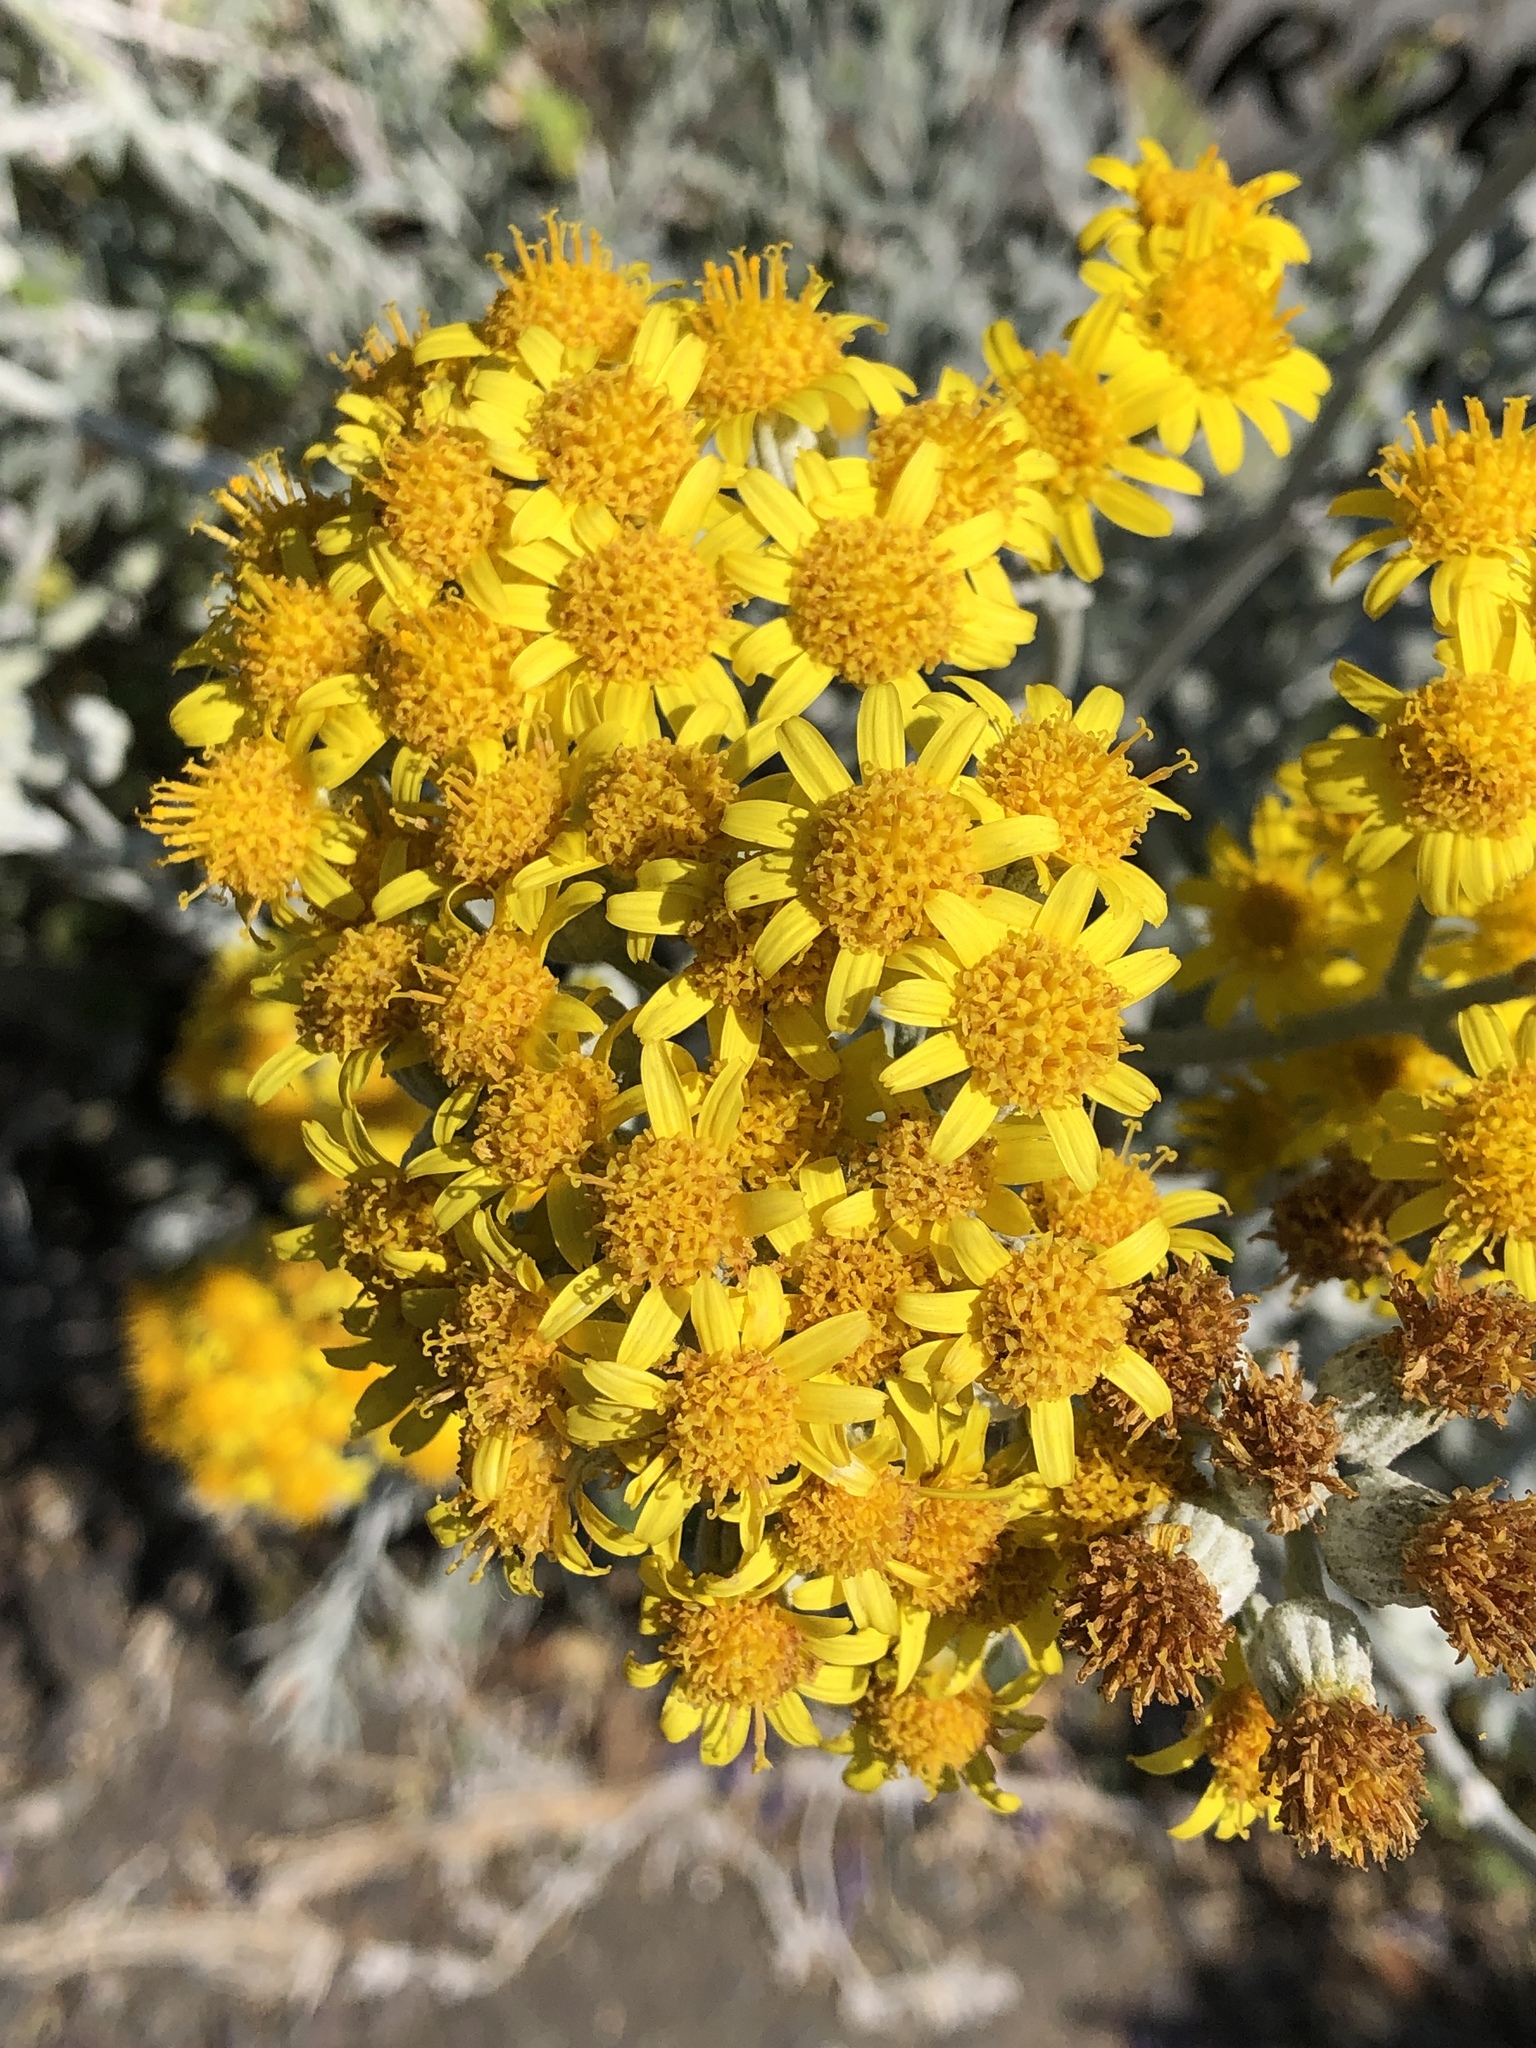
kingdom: Plantae
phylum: Tracheophyta
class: Magnoliopsida
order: Asterales
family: Asteraceae
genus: Jacobaea
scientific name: Jacobaea maritima
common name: Silver ragwort
